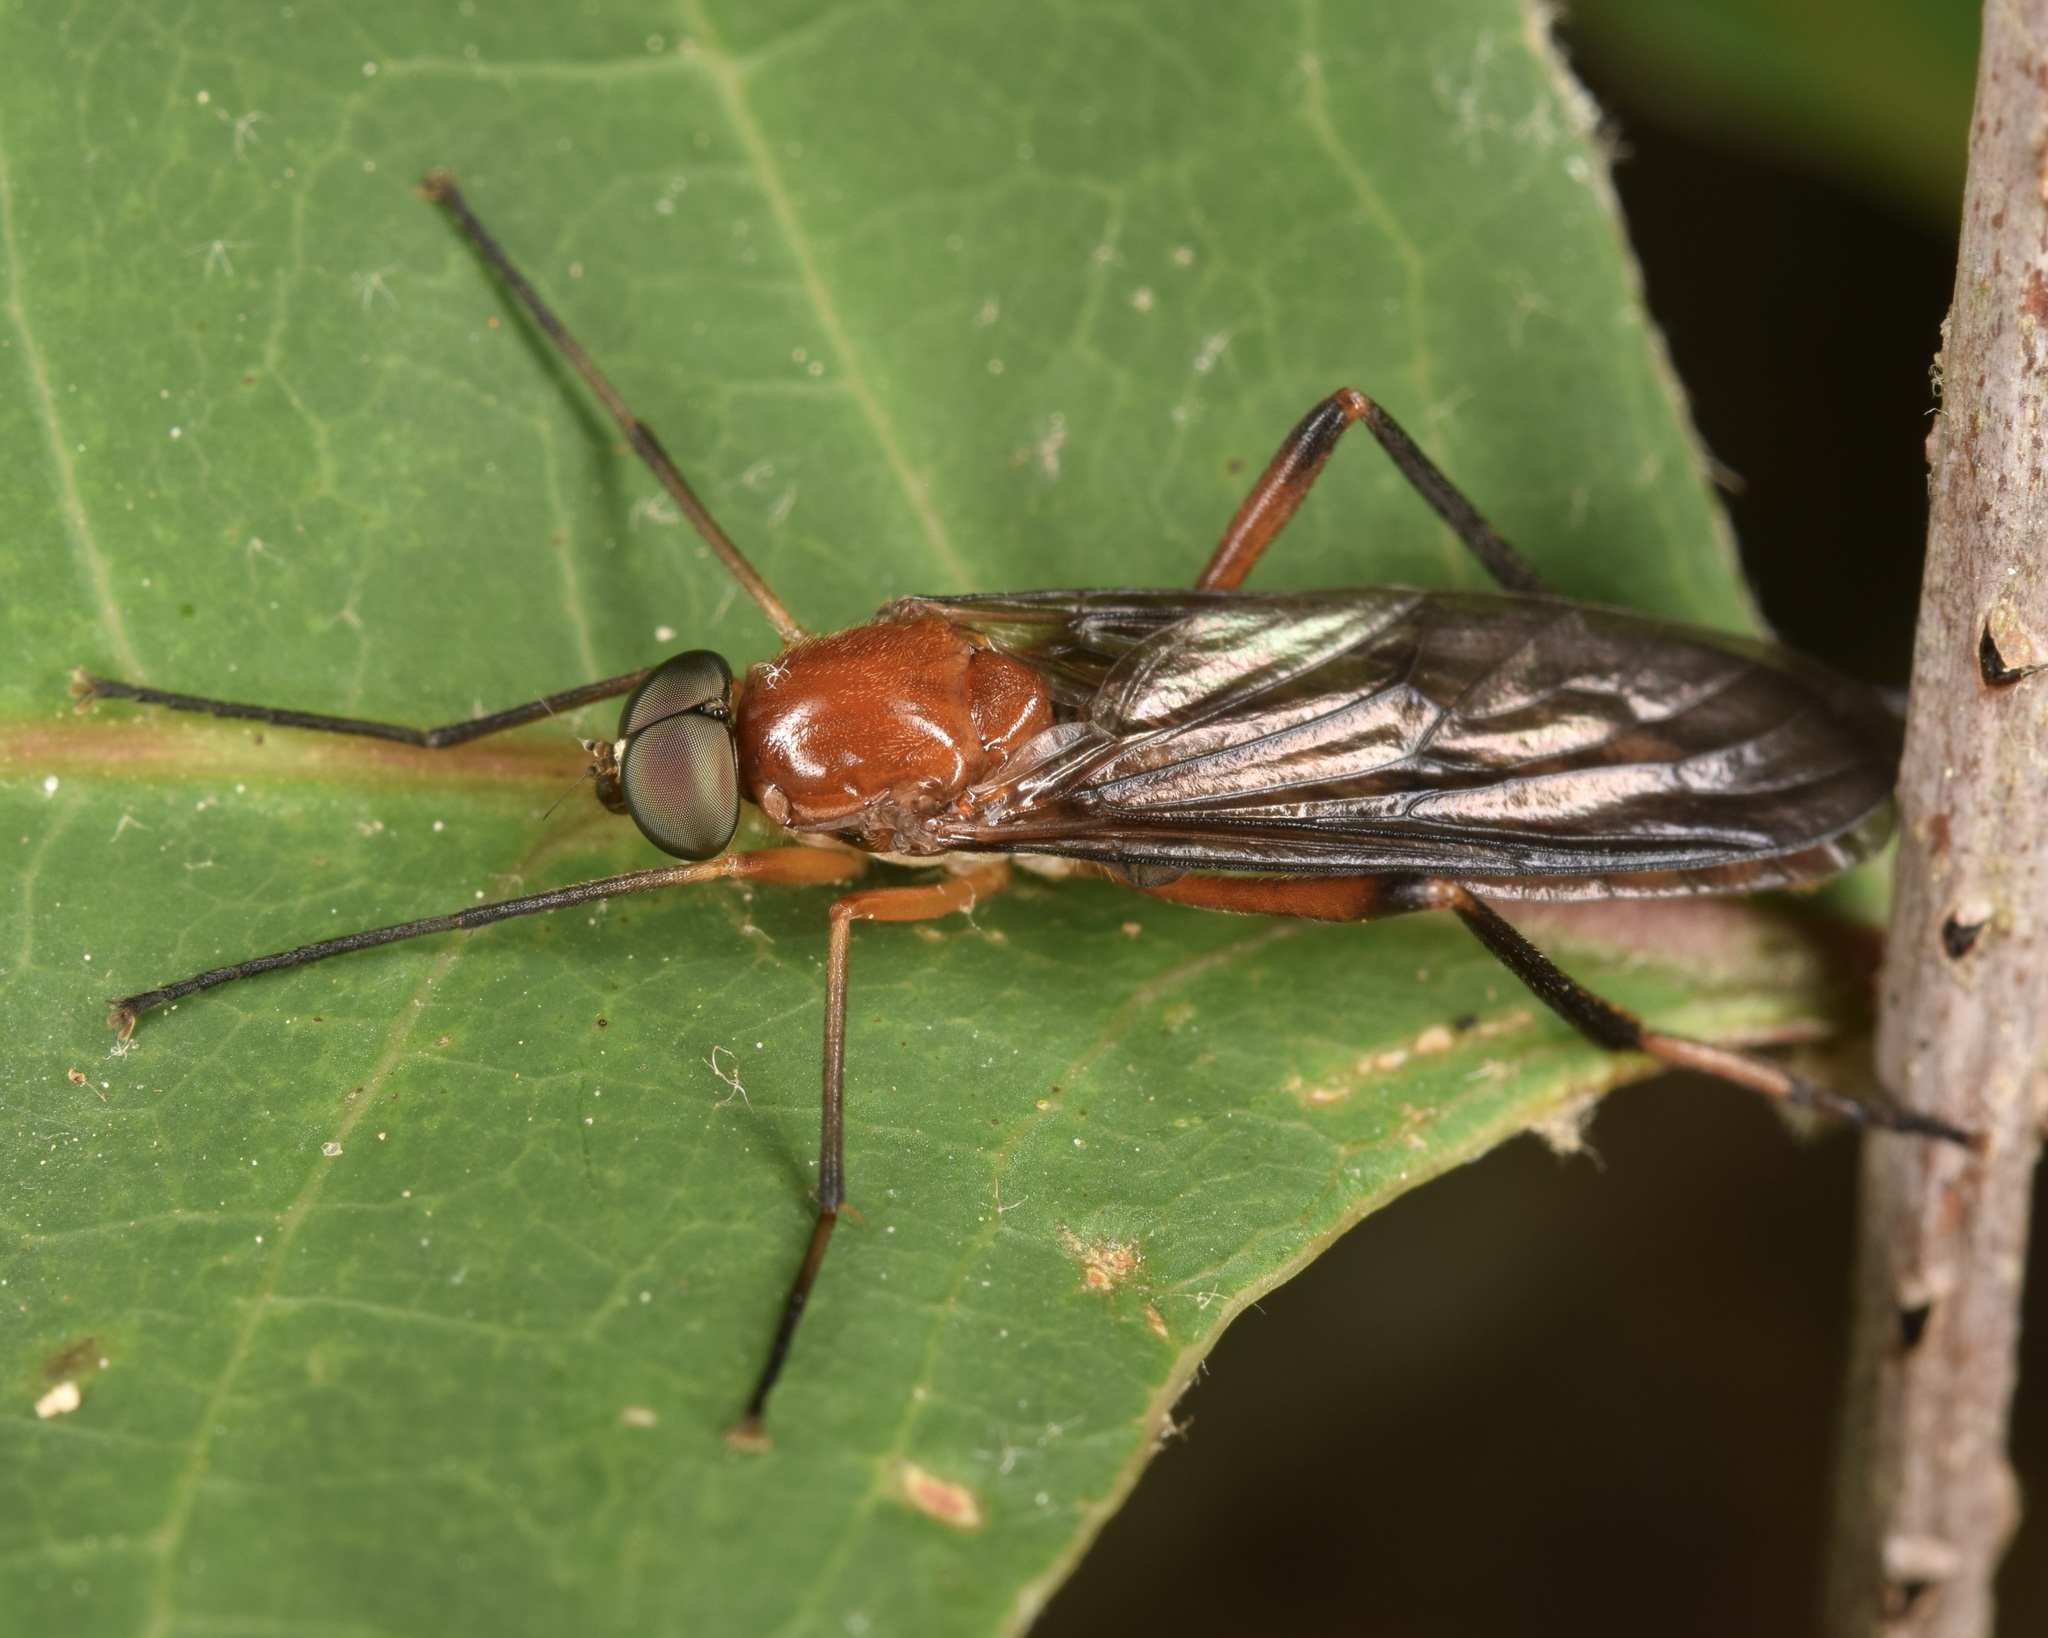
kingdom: Animalia
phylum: Arthropoda
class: Insecta
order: Diptera
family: Xylophagidae
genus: Dialysis
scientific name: Dialysis fasciventris
